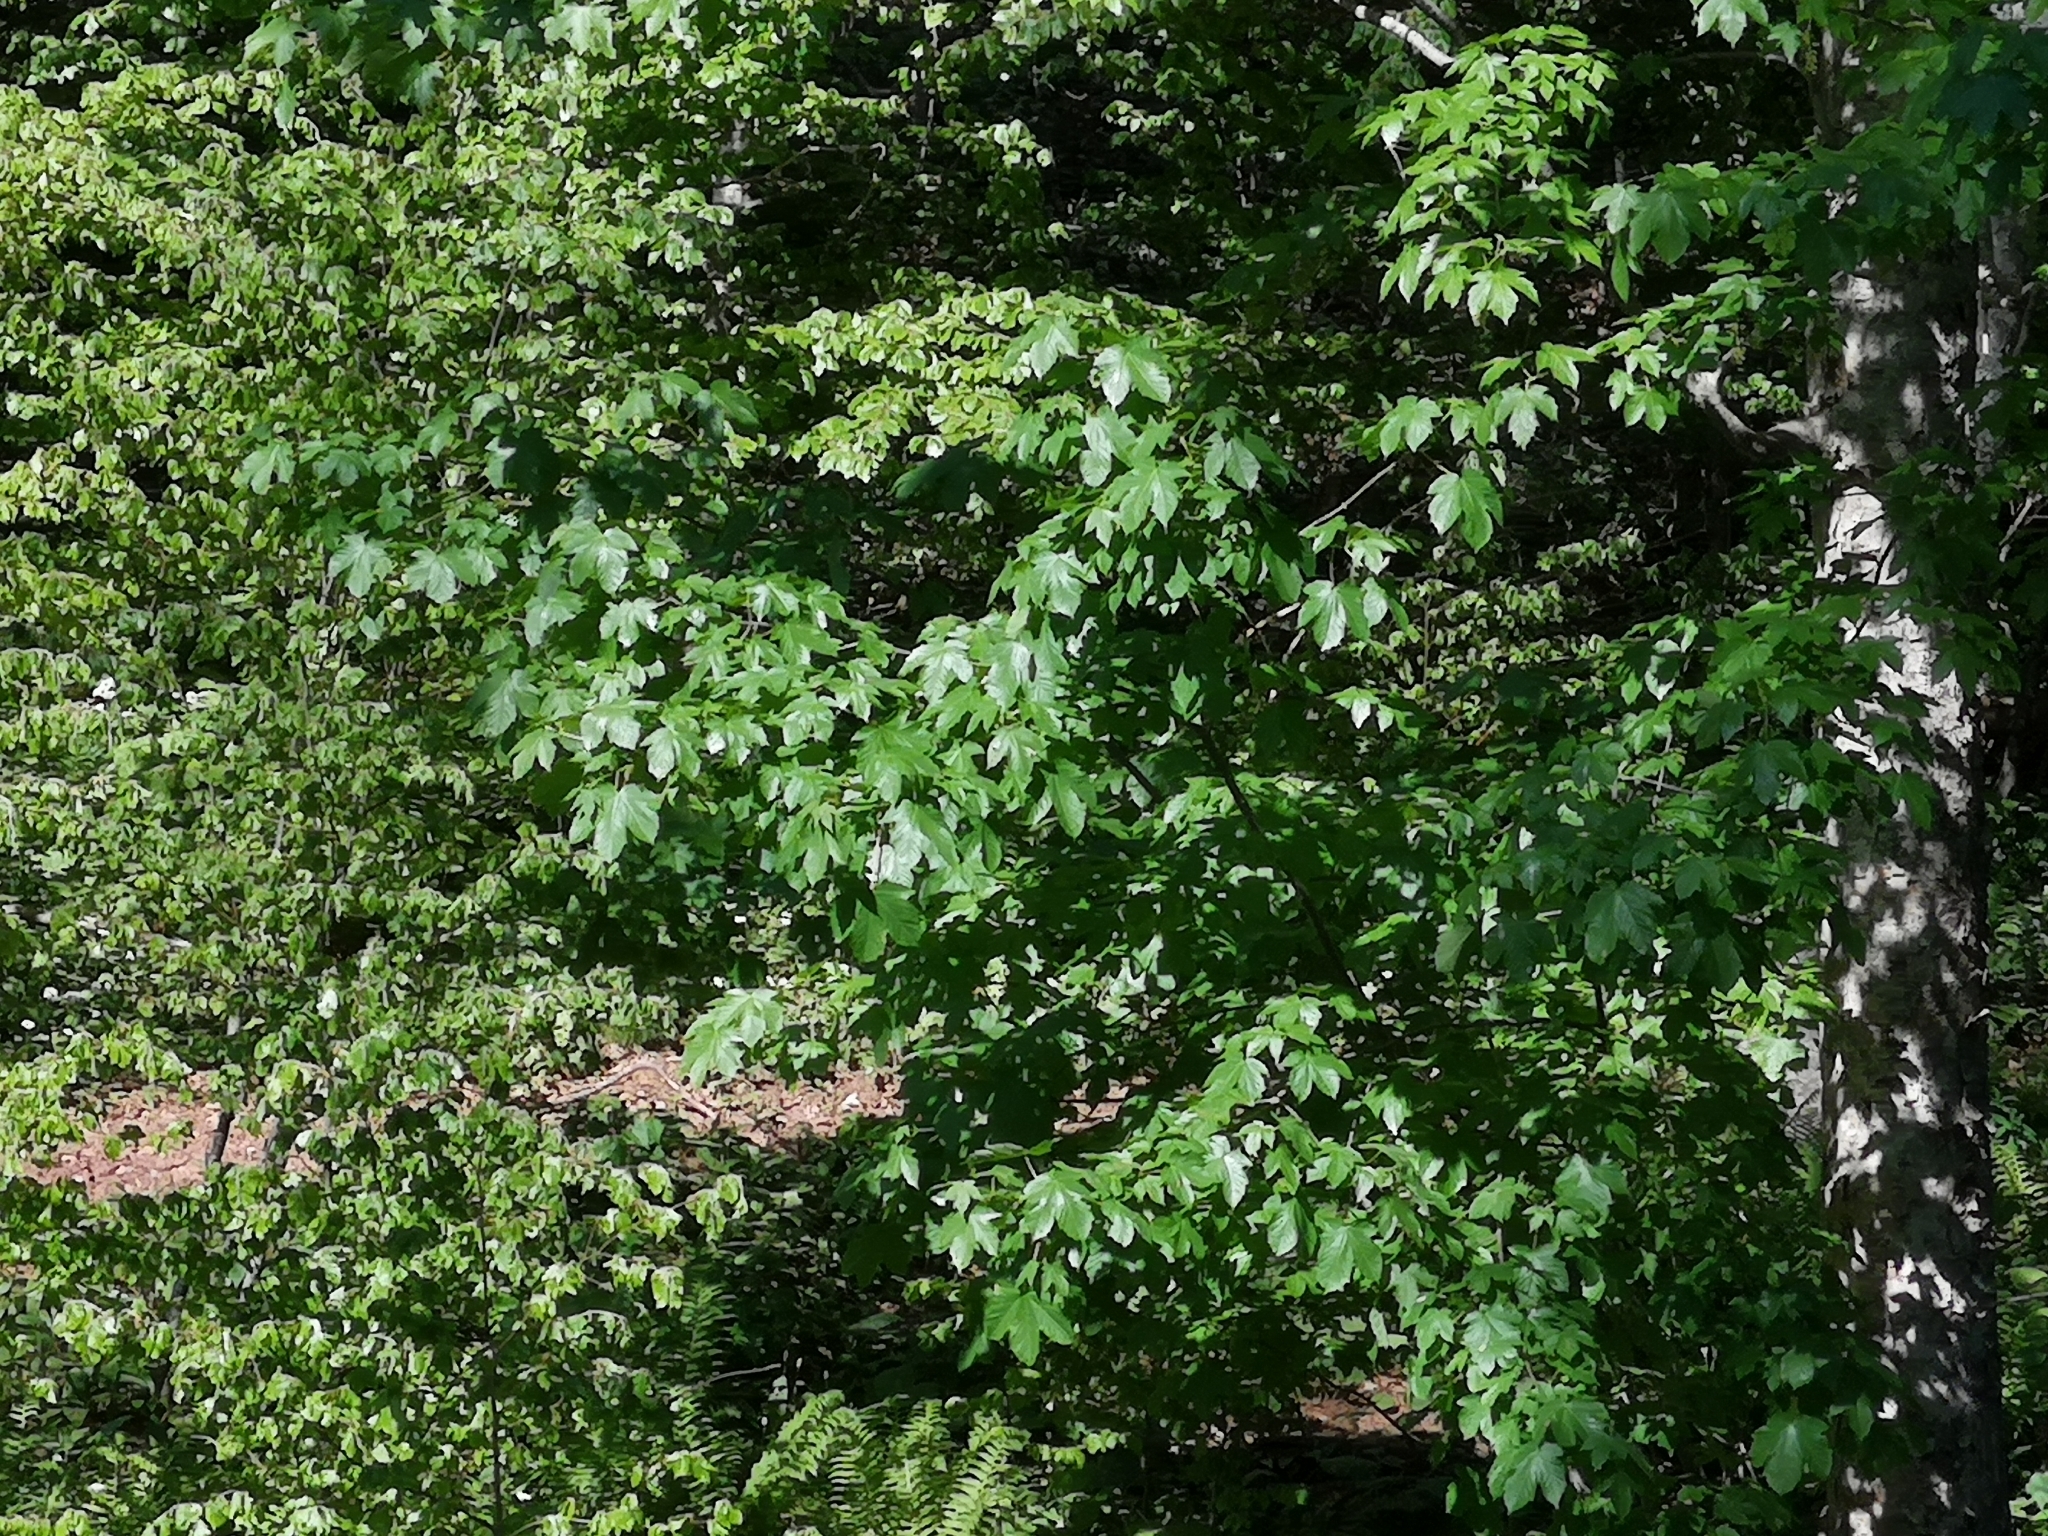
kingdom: Plantae
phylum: Tracheophyta
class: Magnoliopsida
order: Sapindales
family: Sapindaceae
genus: Acer
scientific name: Acer pseudoplatanus
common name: Sycamore
